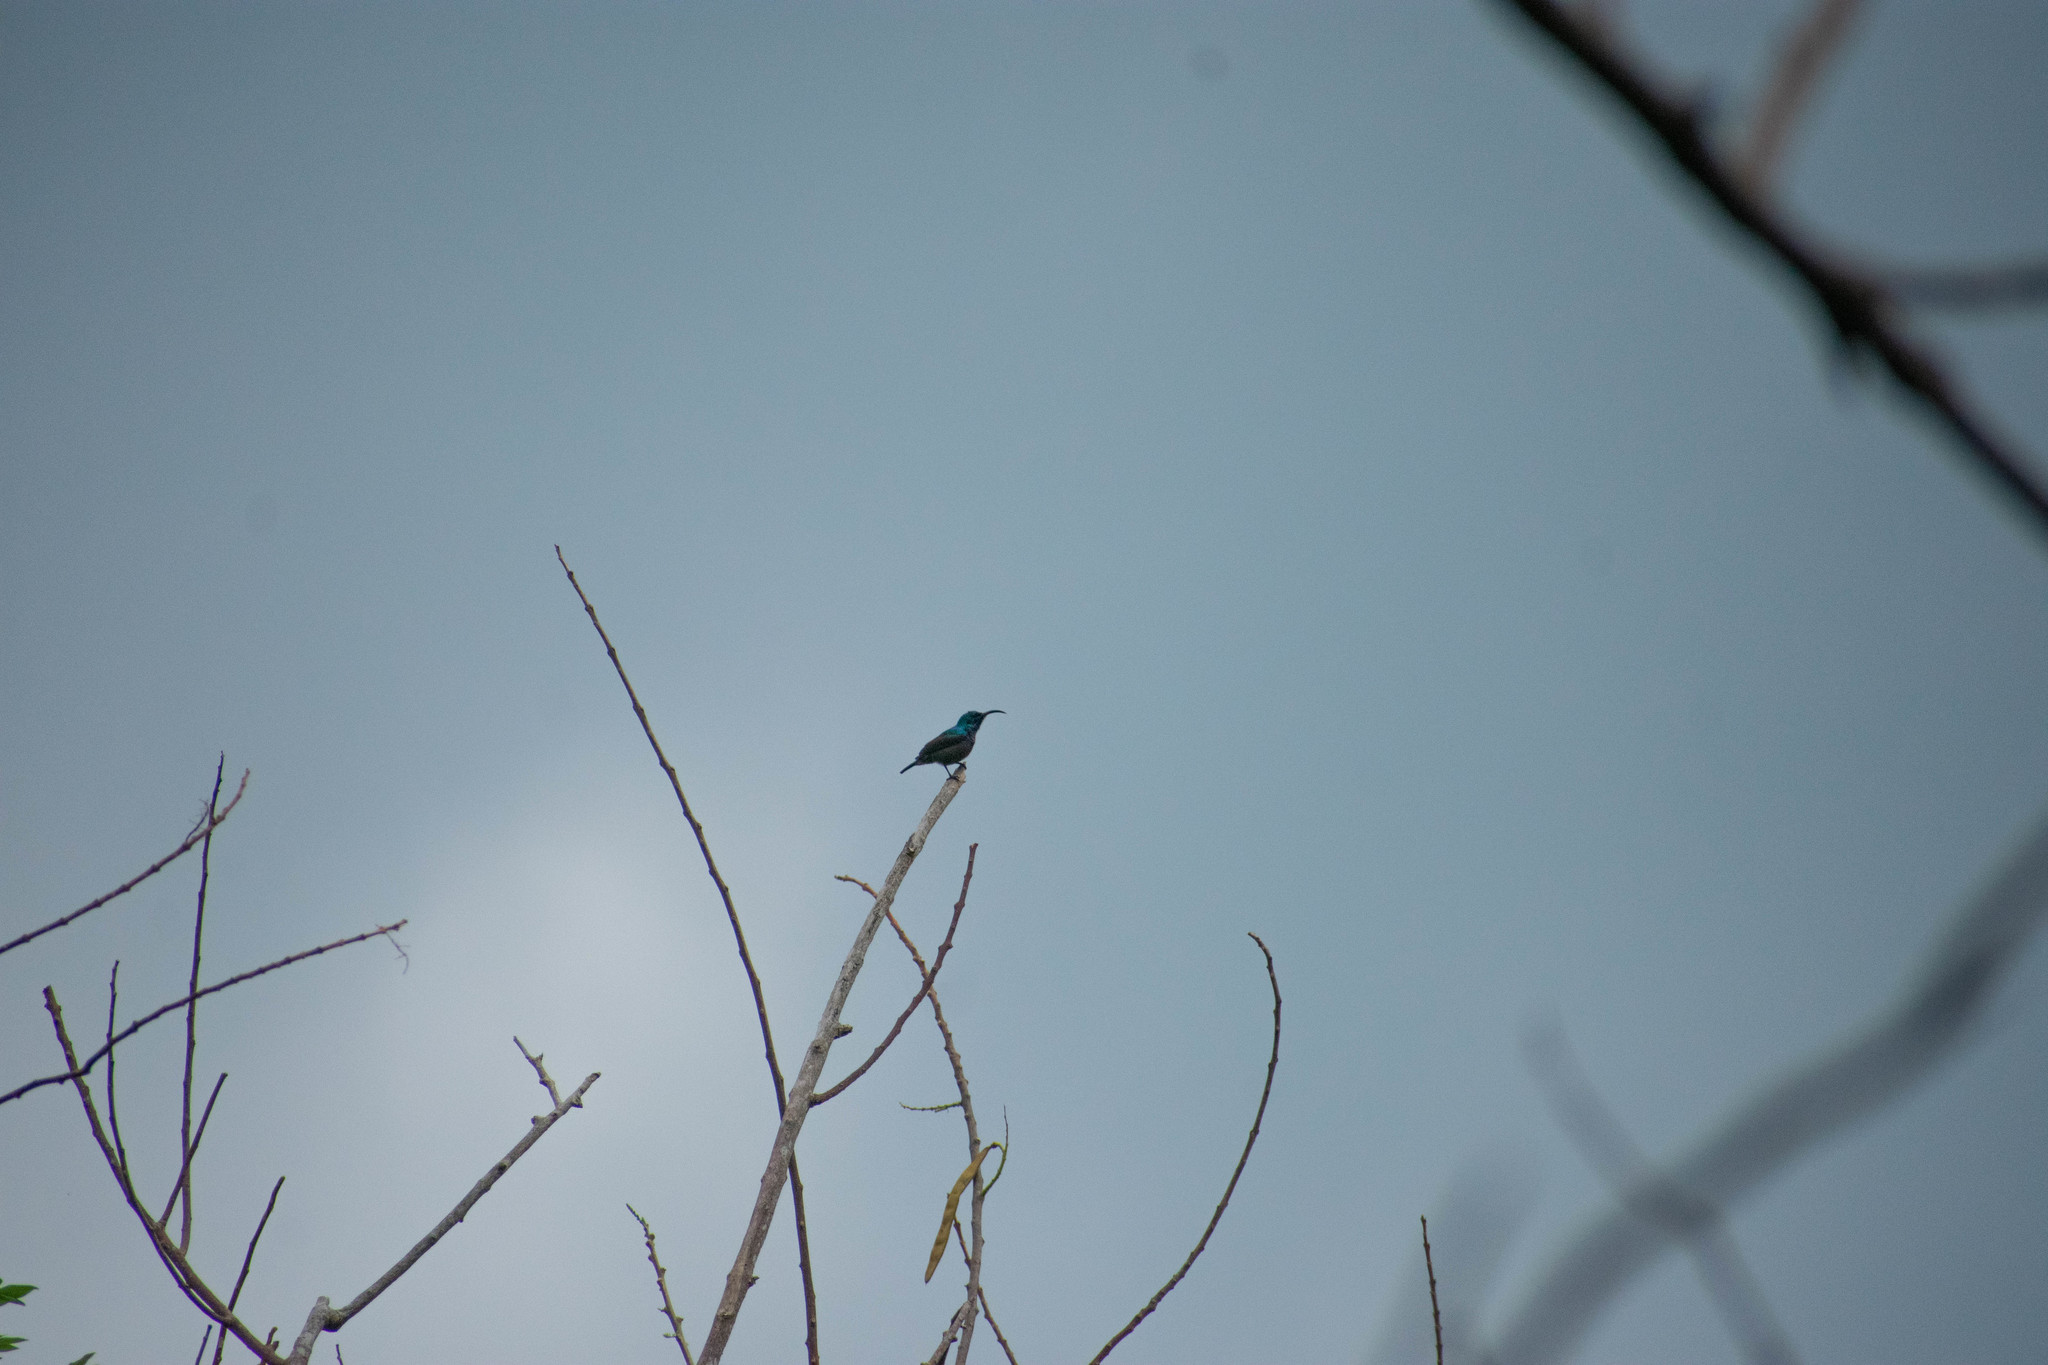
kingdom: Animalia
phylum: Chordata
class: Aves
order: Passeriformes
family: Nectariniidae
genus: Cinnyris
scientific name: Cinnyris lotenius
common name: Loten's sunbird
